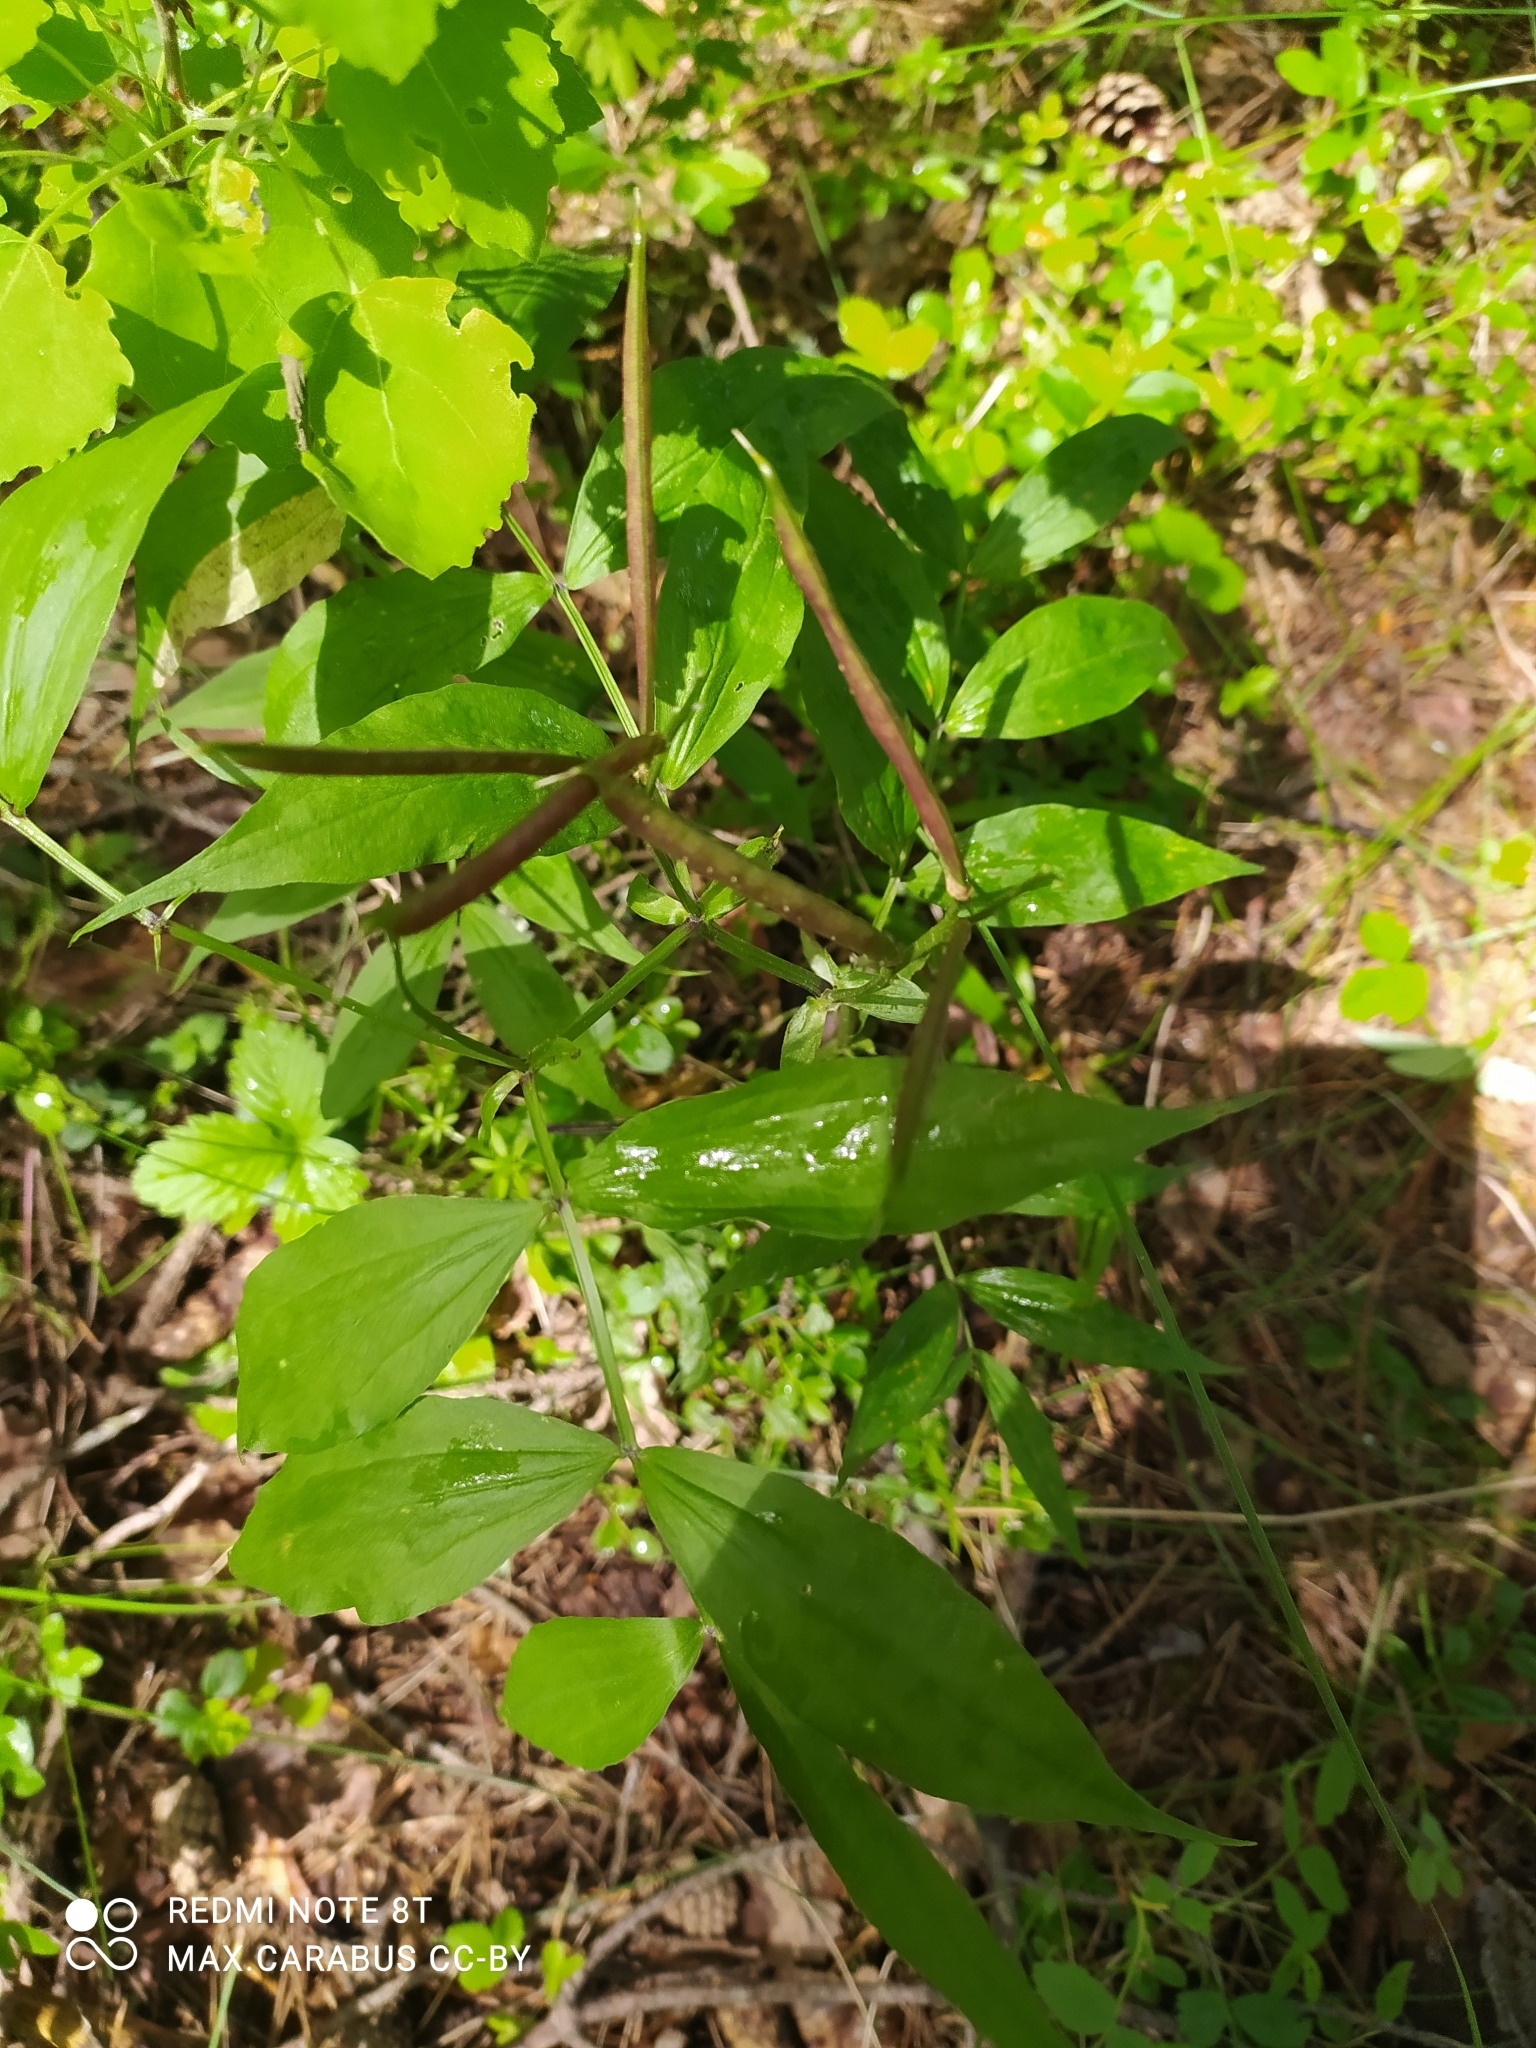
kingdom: Plantae
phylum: Tracheophyta
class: Magnoliopsida
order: Fabales
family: Fabaceae
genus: Lathyrus
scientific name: Lathyrus vernus
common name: Spring pea
